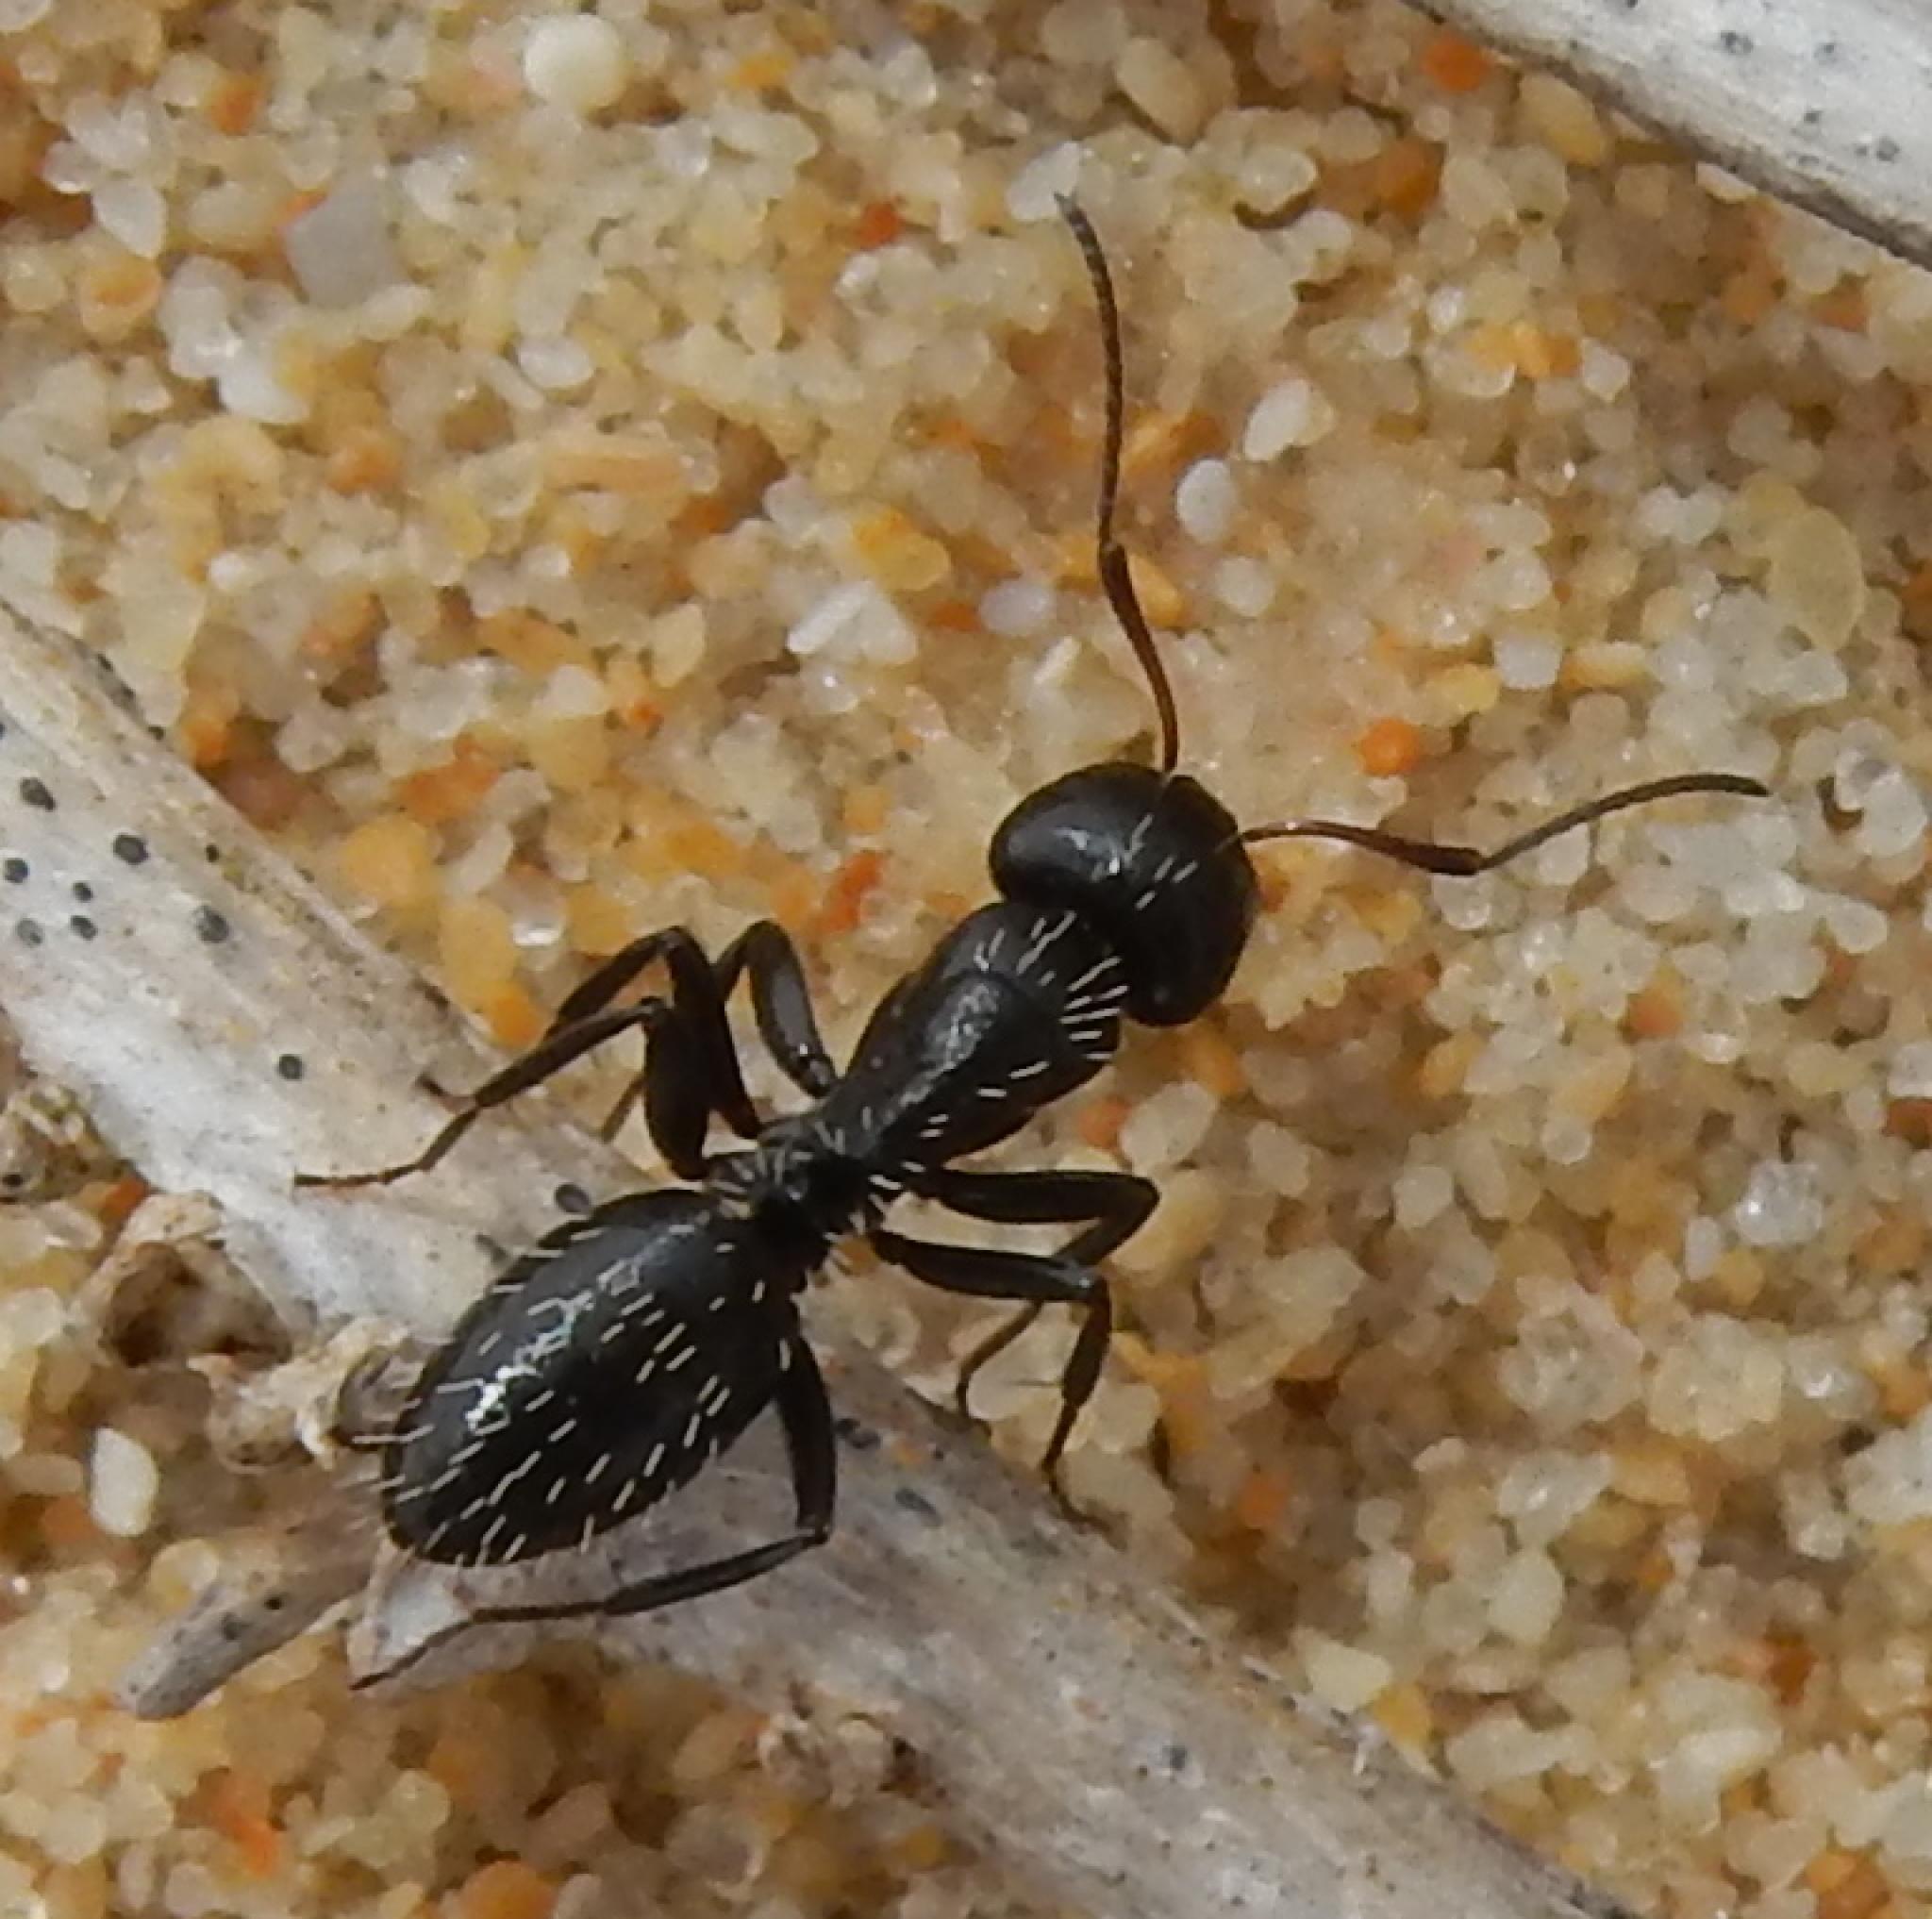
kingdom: Animalia
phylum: Arthropoda
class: Insecta
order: Hymenoptera
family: Formicidae
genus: Camponotus
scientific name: Camponotus niveosetosus
